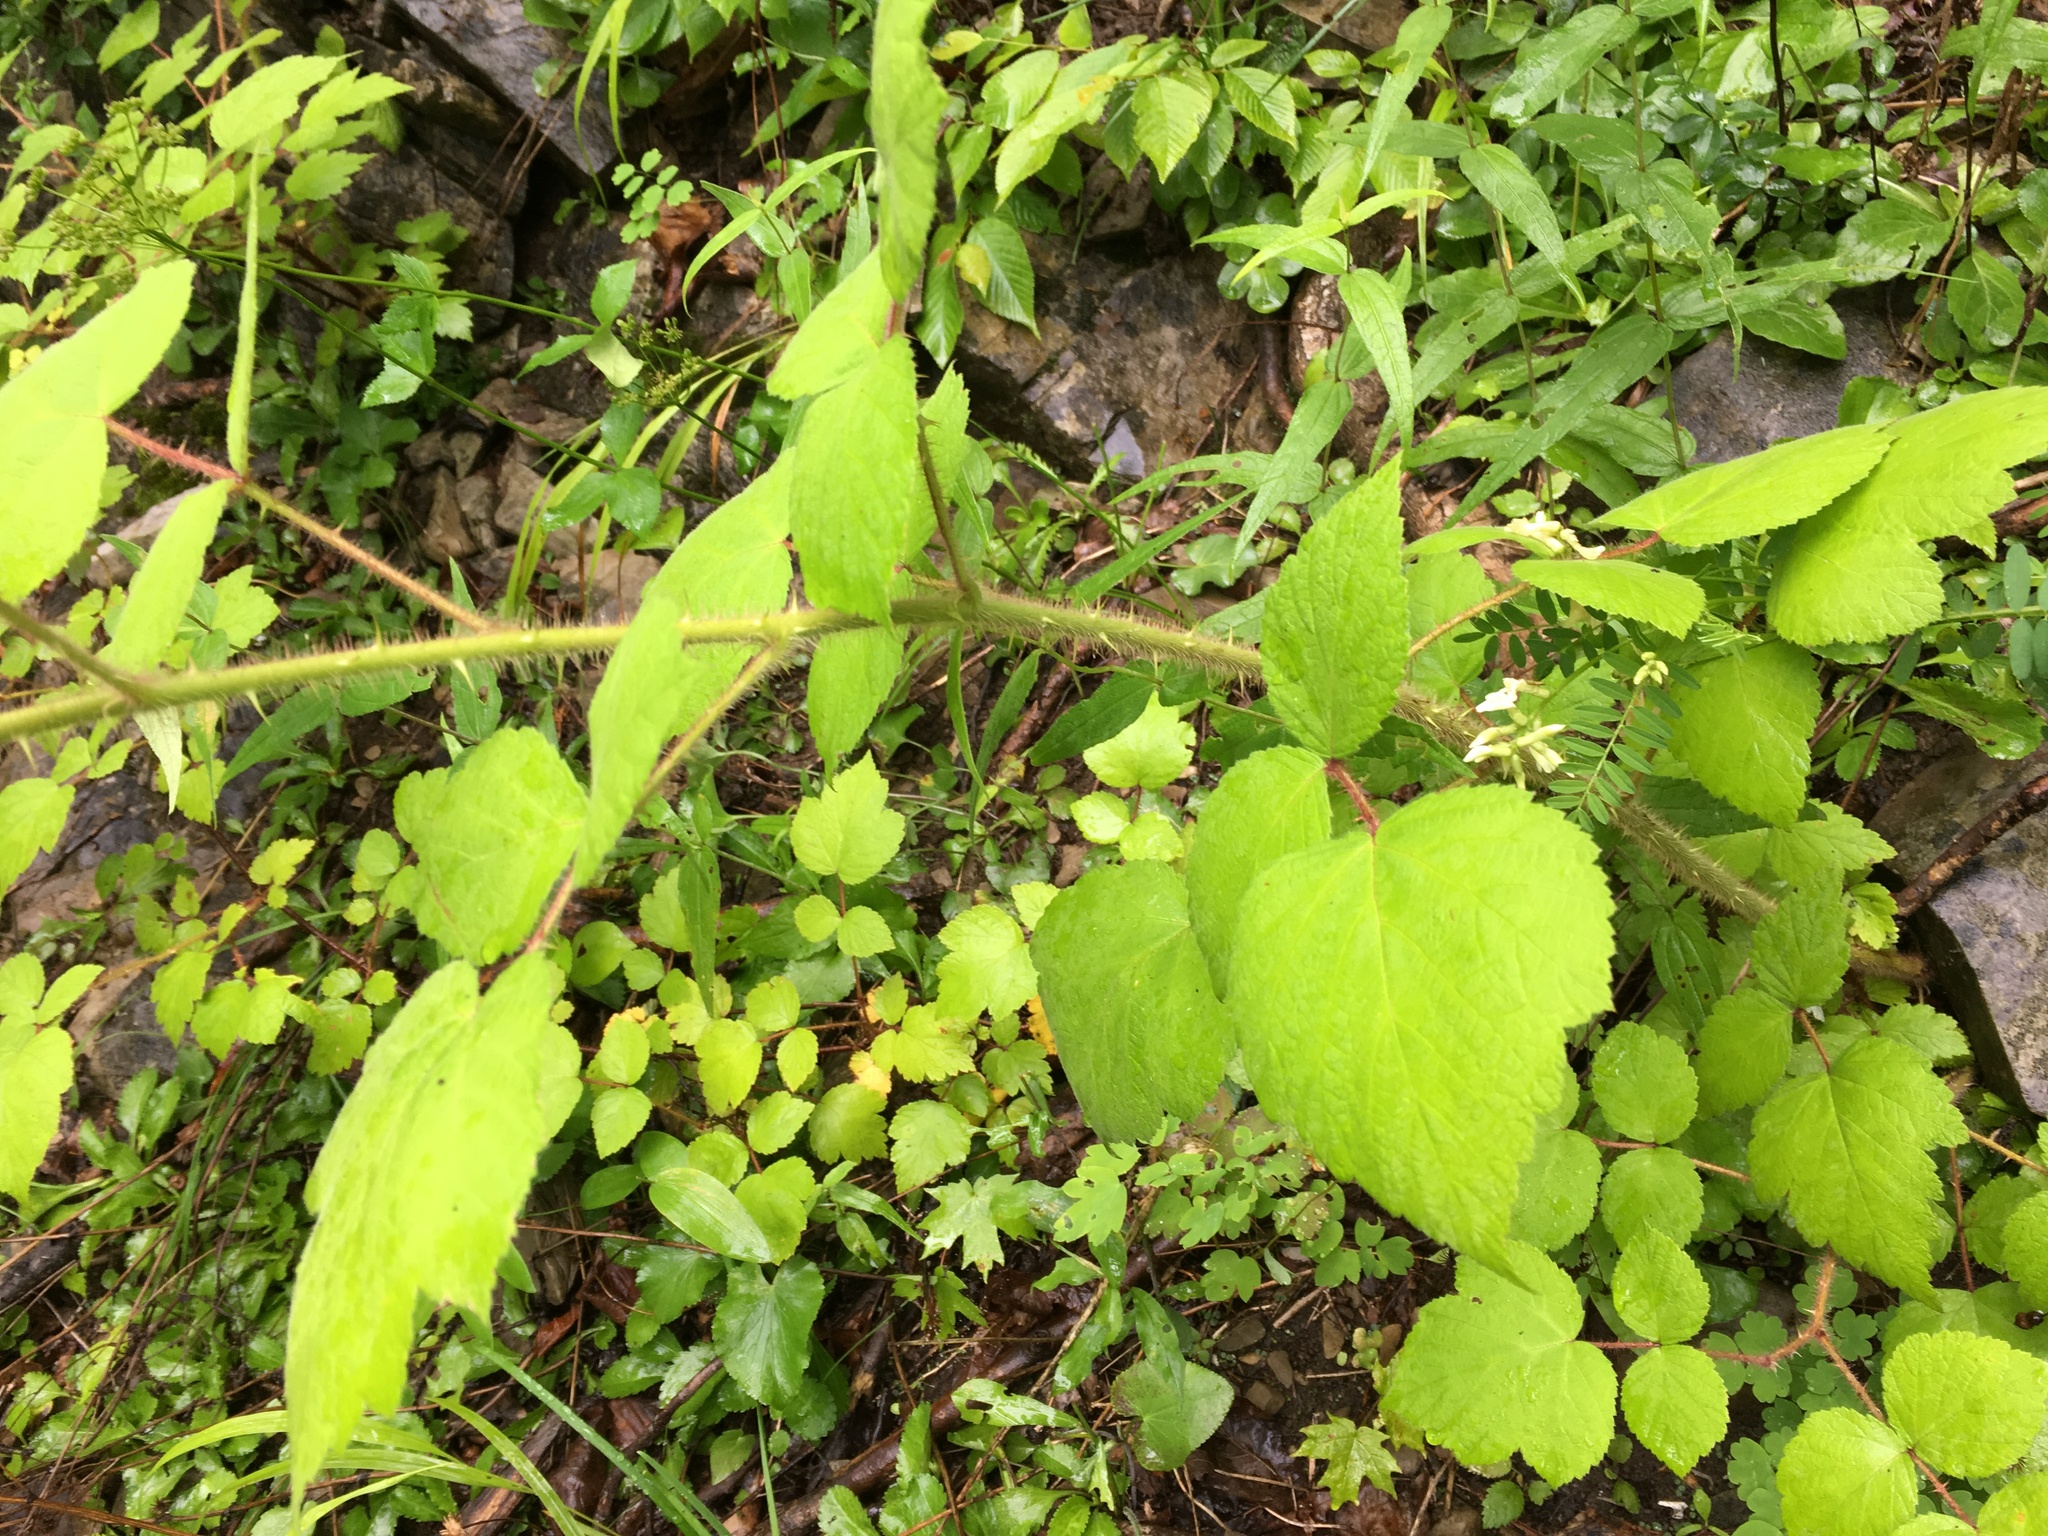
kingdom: Plantae
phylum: Tracheophyta
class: Magnoliopsida
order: Rosales
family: Rosaceae
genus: Rubus
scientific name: Rubus phoenicolasius
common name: Japanese wineberry
